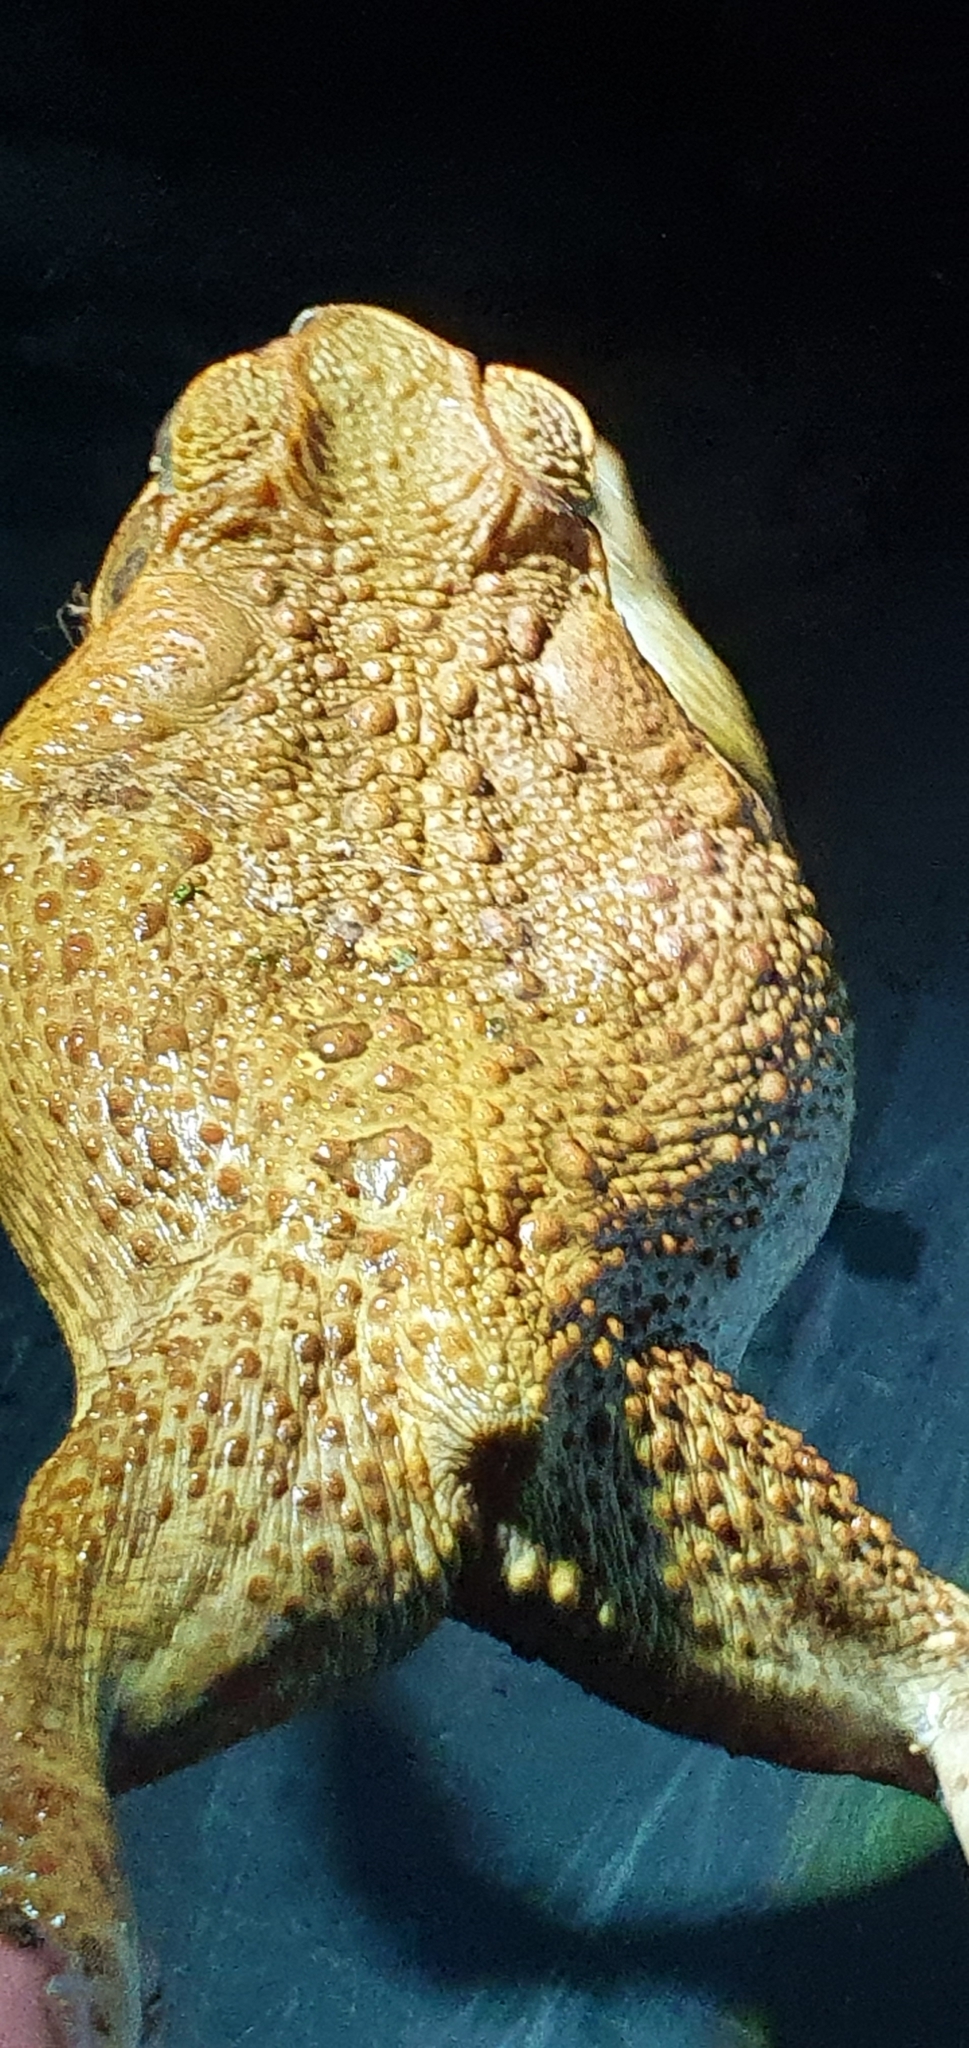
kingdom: Animalia
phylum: Chordata
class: Amphibia
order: Anura
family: Bufonidae
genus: Rhinella
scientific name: Rhinella marina
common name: Cane toad
